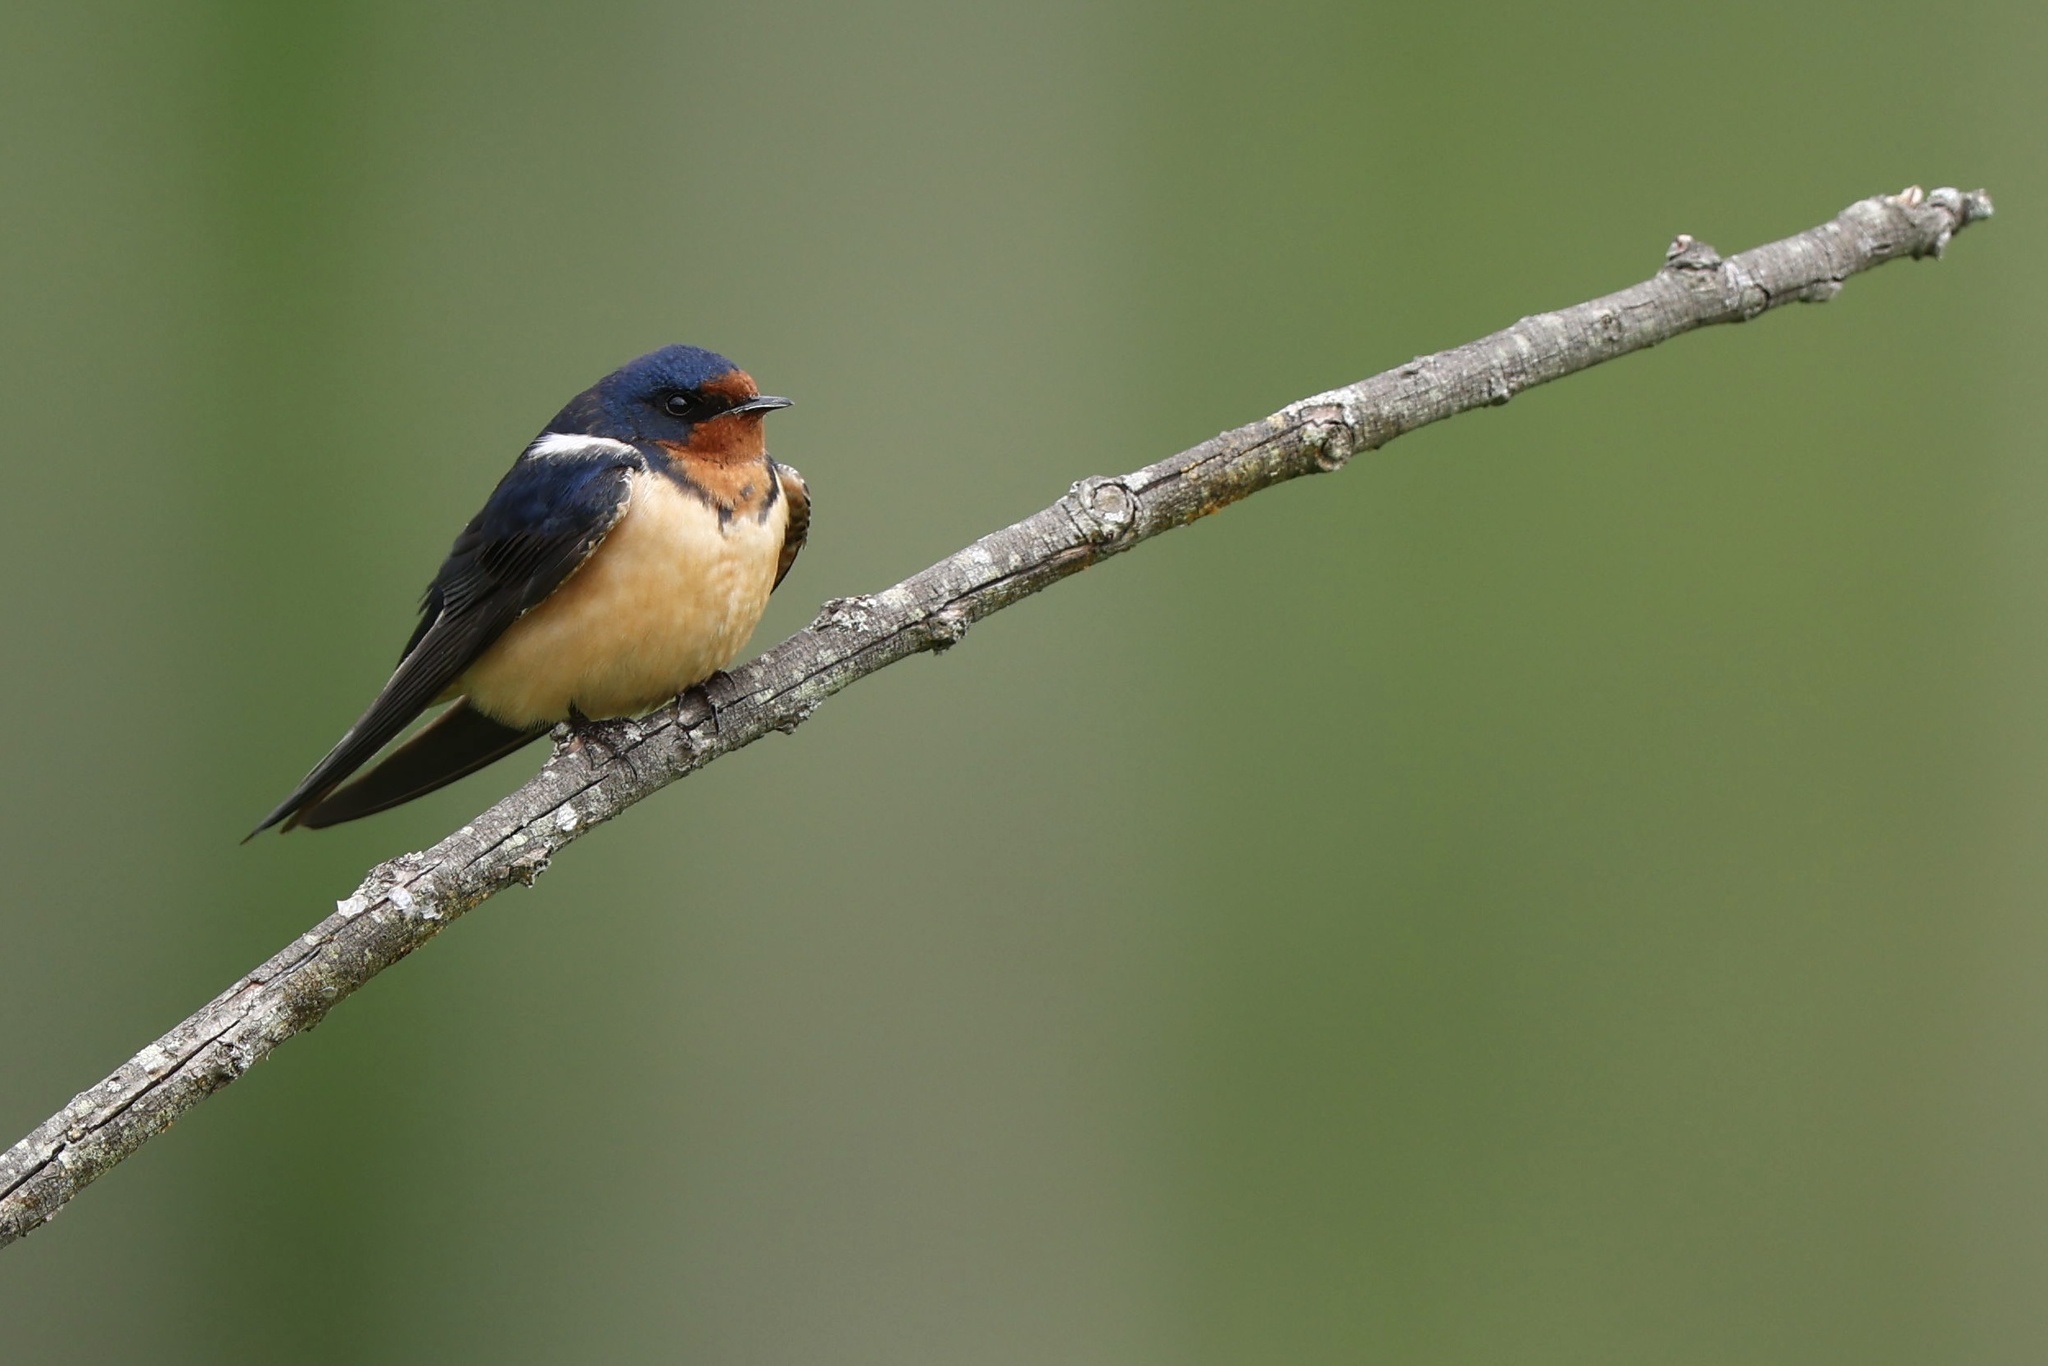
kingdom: Animalia
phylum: Chordata
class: Aves
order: Passeriformes
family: Hirundinidae
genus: Hirundo
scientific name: Hirundo rustica
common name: Barn swallow
